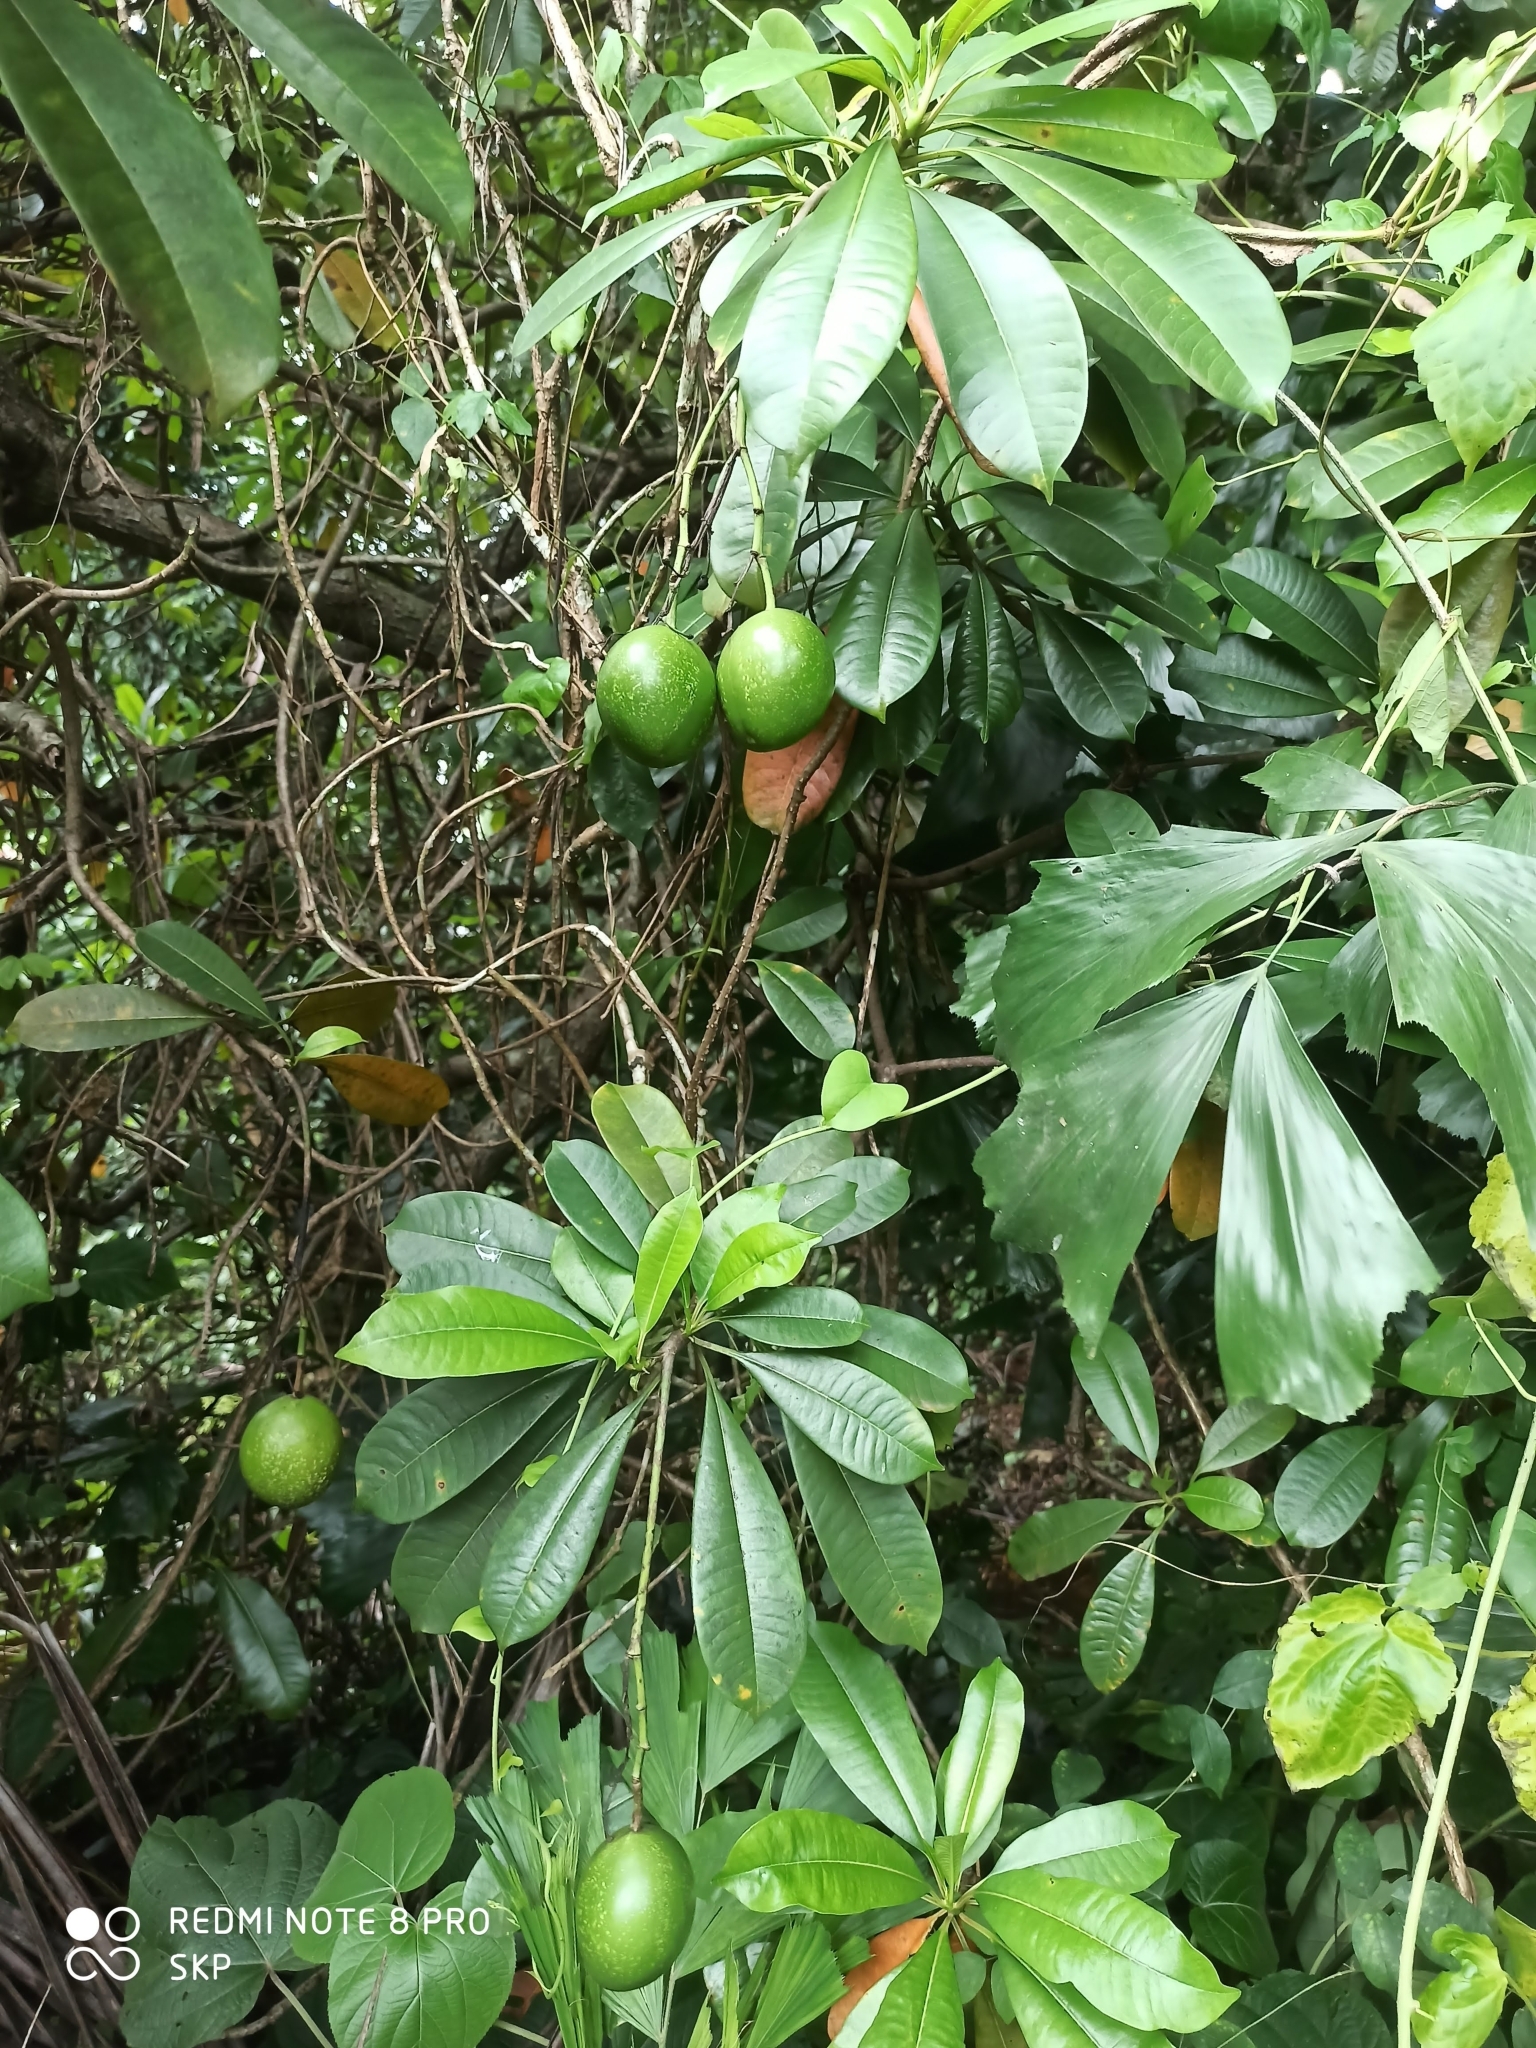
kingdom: Plantae
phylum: Tracheophyta
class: Magnoliopsida
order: Gentianales
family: Apocynaceae
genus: Cerbera
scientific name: Cerbera odollam
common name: Pong-pong
